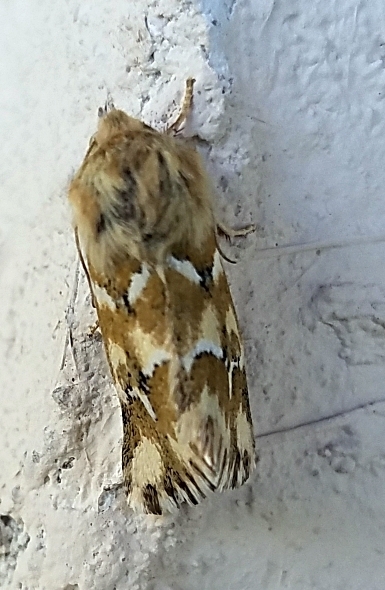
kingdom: Animalia
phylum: Arthropoda
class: Insecta
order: Lepidoptera
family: Noctuidae
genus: Schinia
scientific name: Schinia meadi
